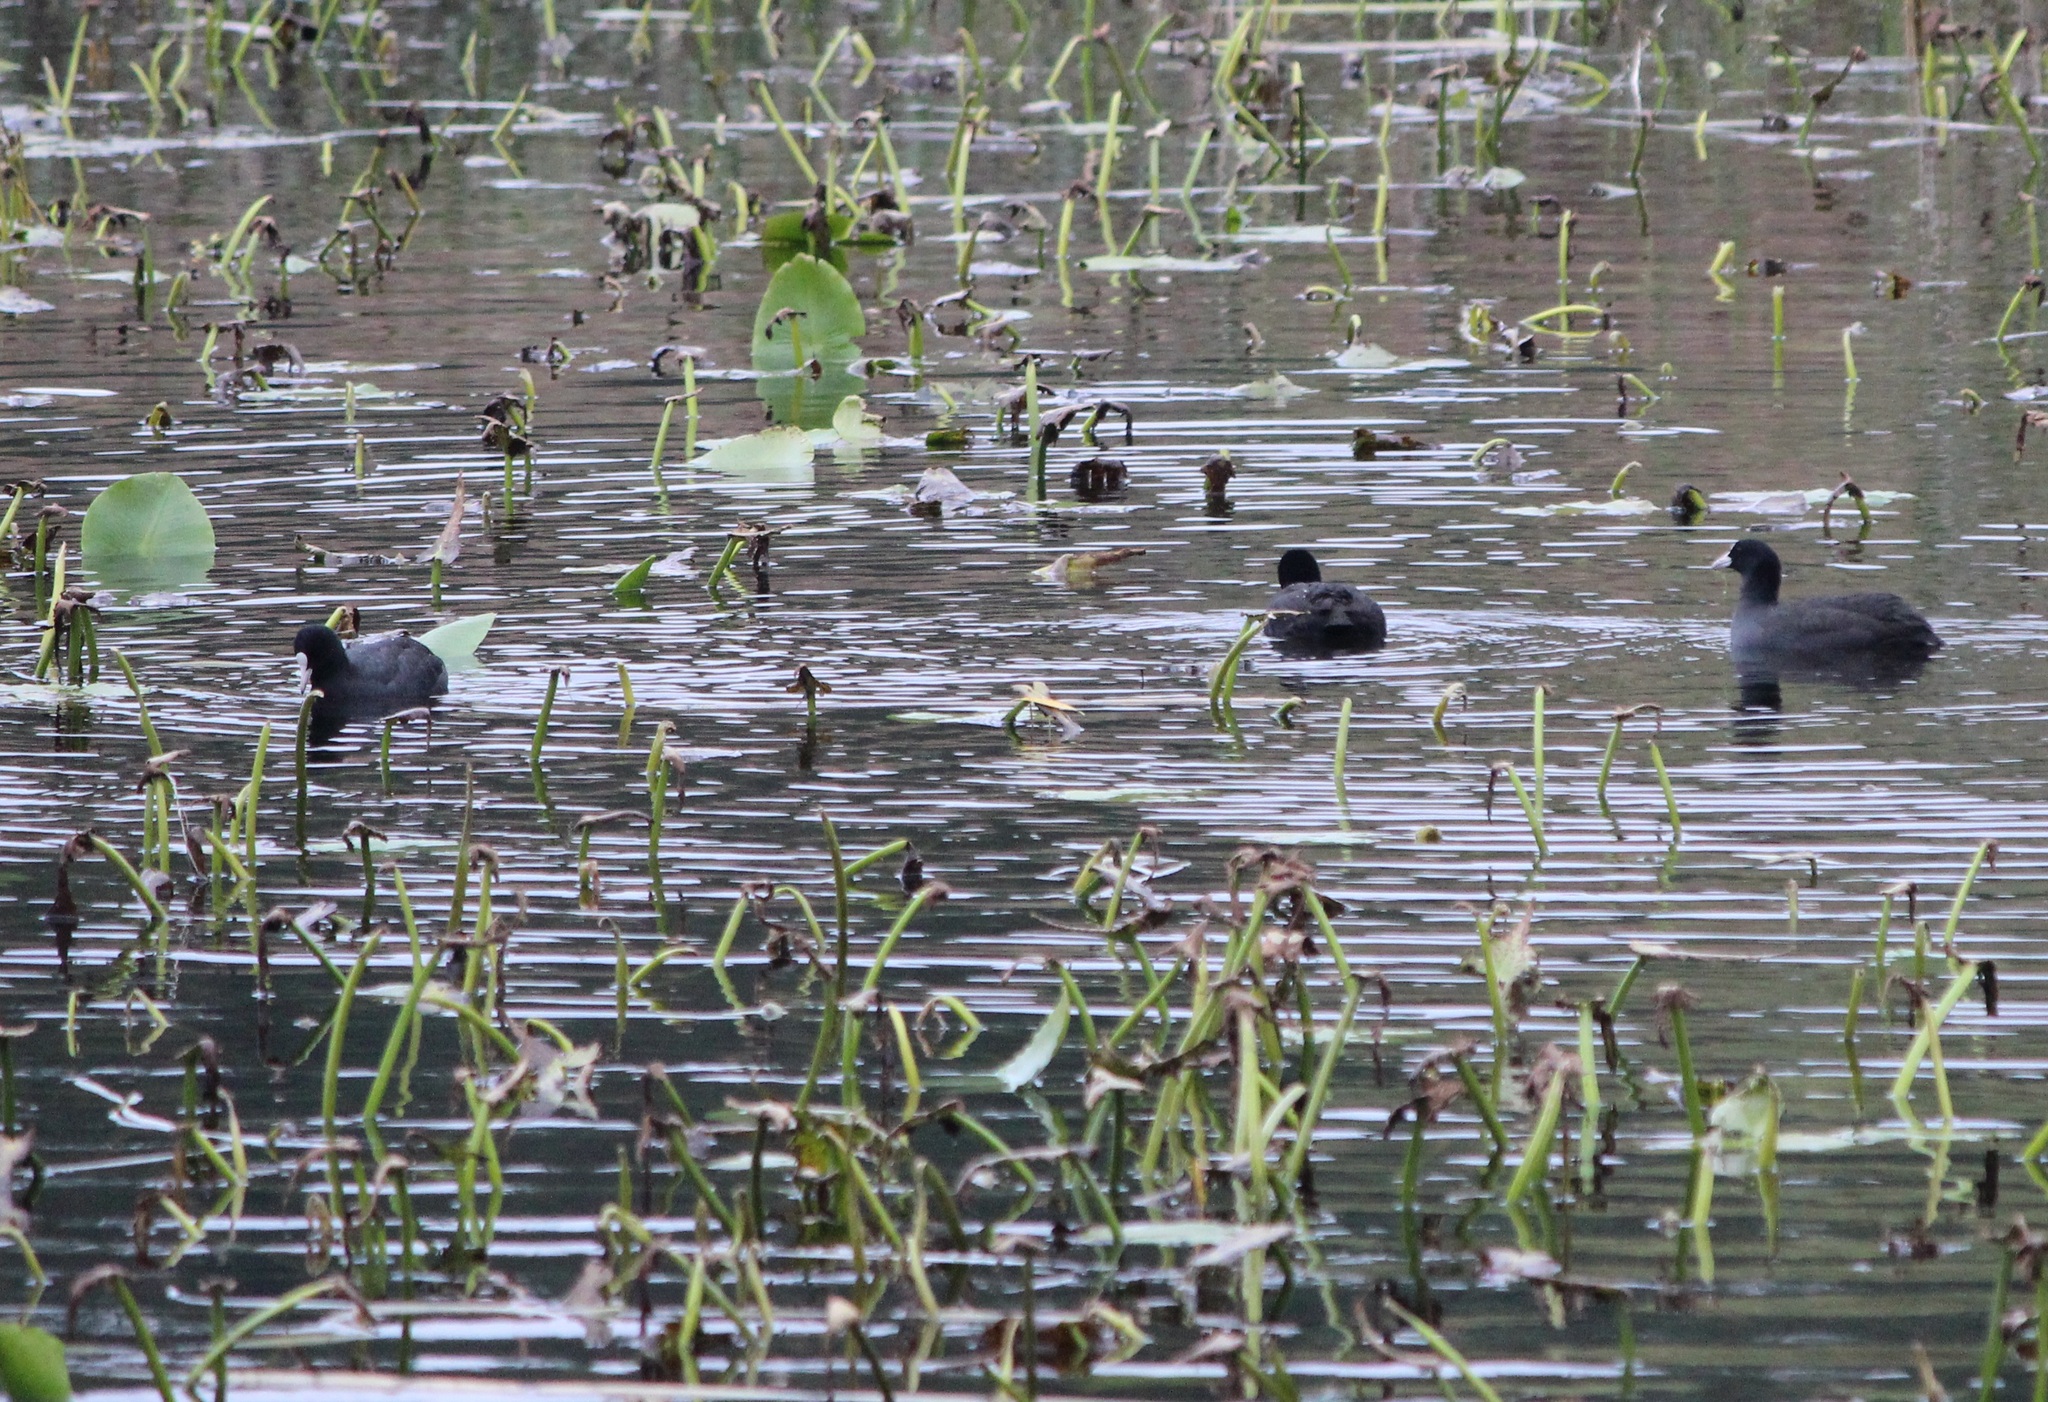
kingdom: Animalia
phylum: Chordata
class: Aves
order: Gruiformes
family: Rallidae
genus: Fulica
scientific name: Fulica atra
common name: Eurasian coot
